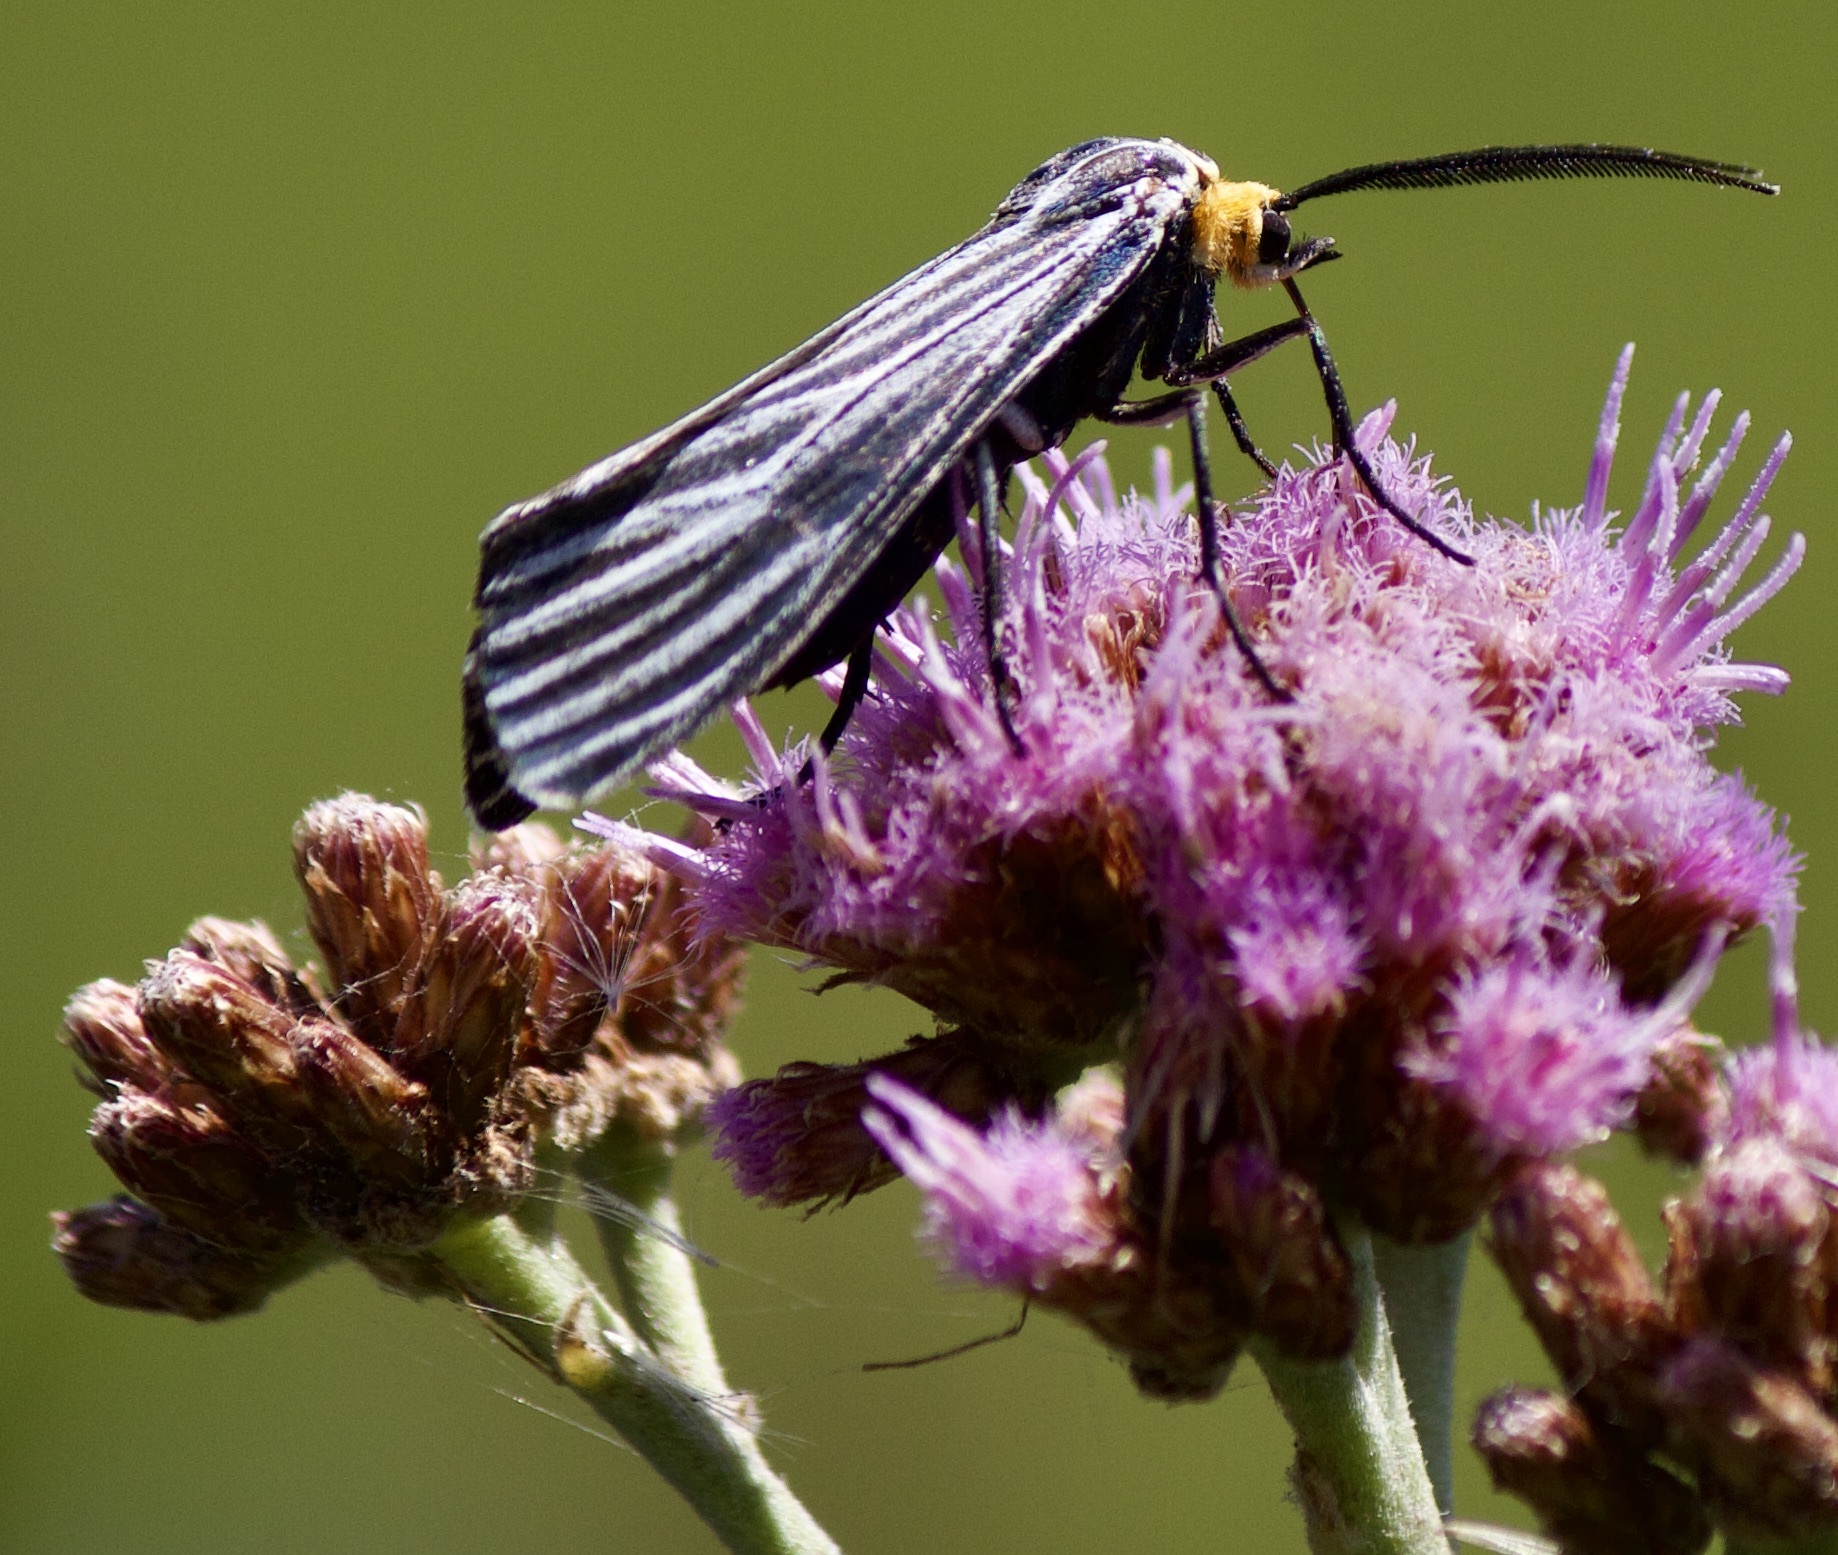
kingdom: Animalia
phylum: Arthropoda
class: Insecta
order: Lepidoptera
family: Erebidae
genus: Ctenucha
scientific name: Ctenucha vittigerum
